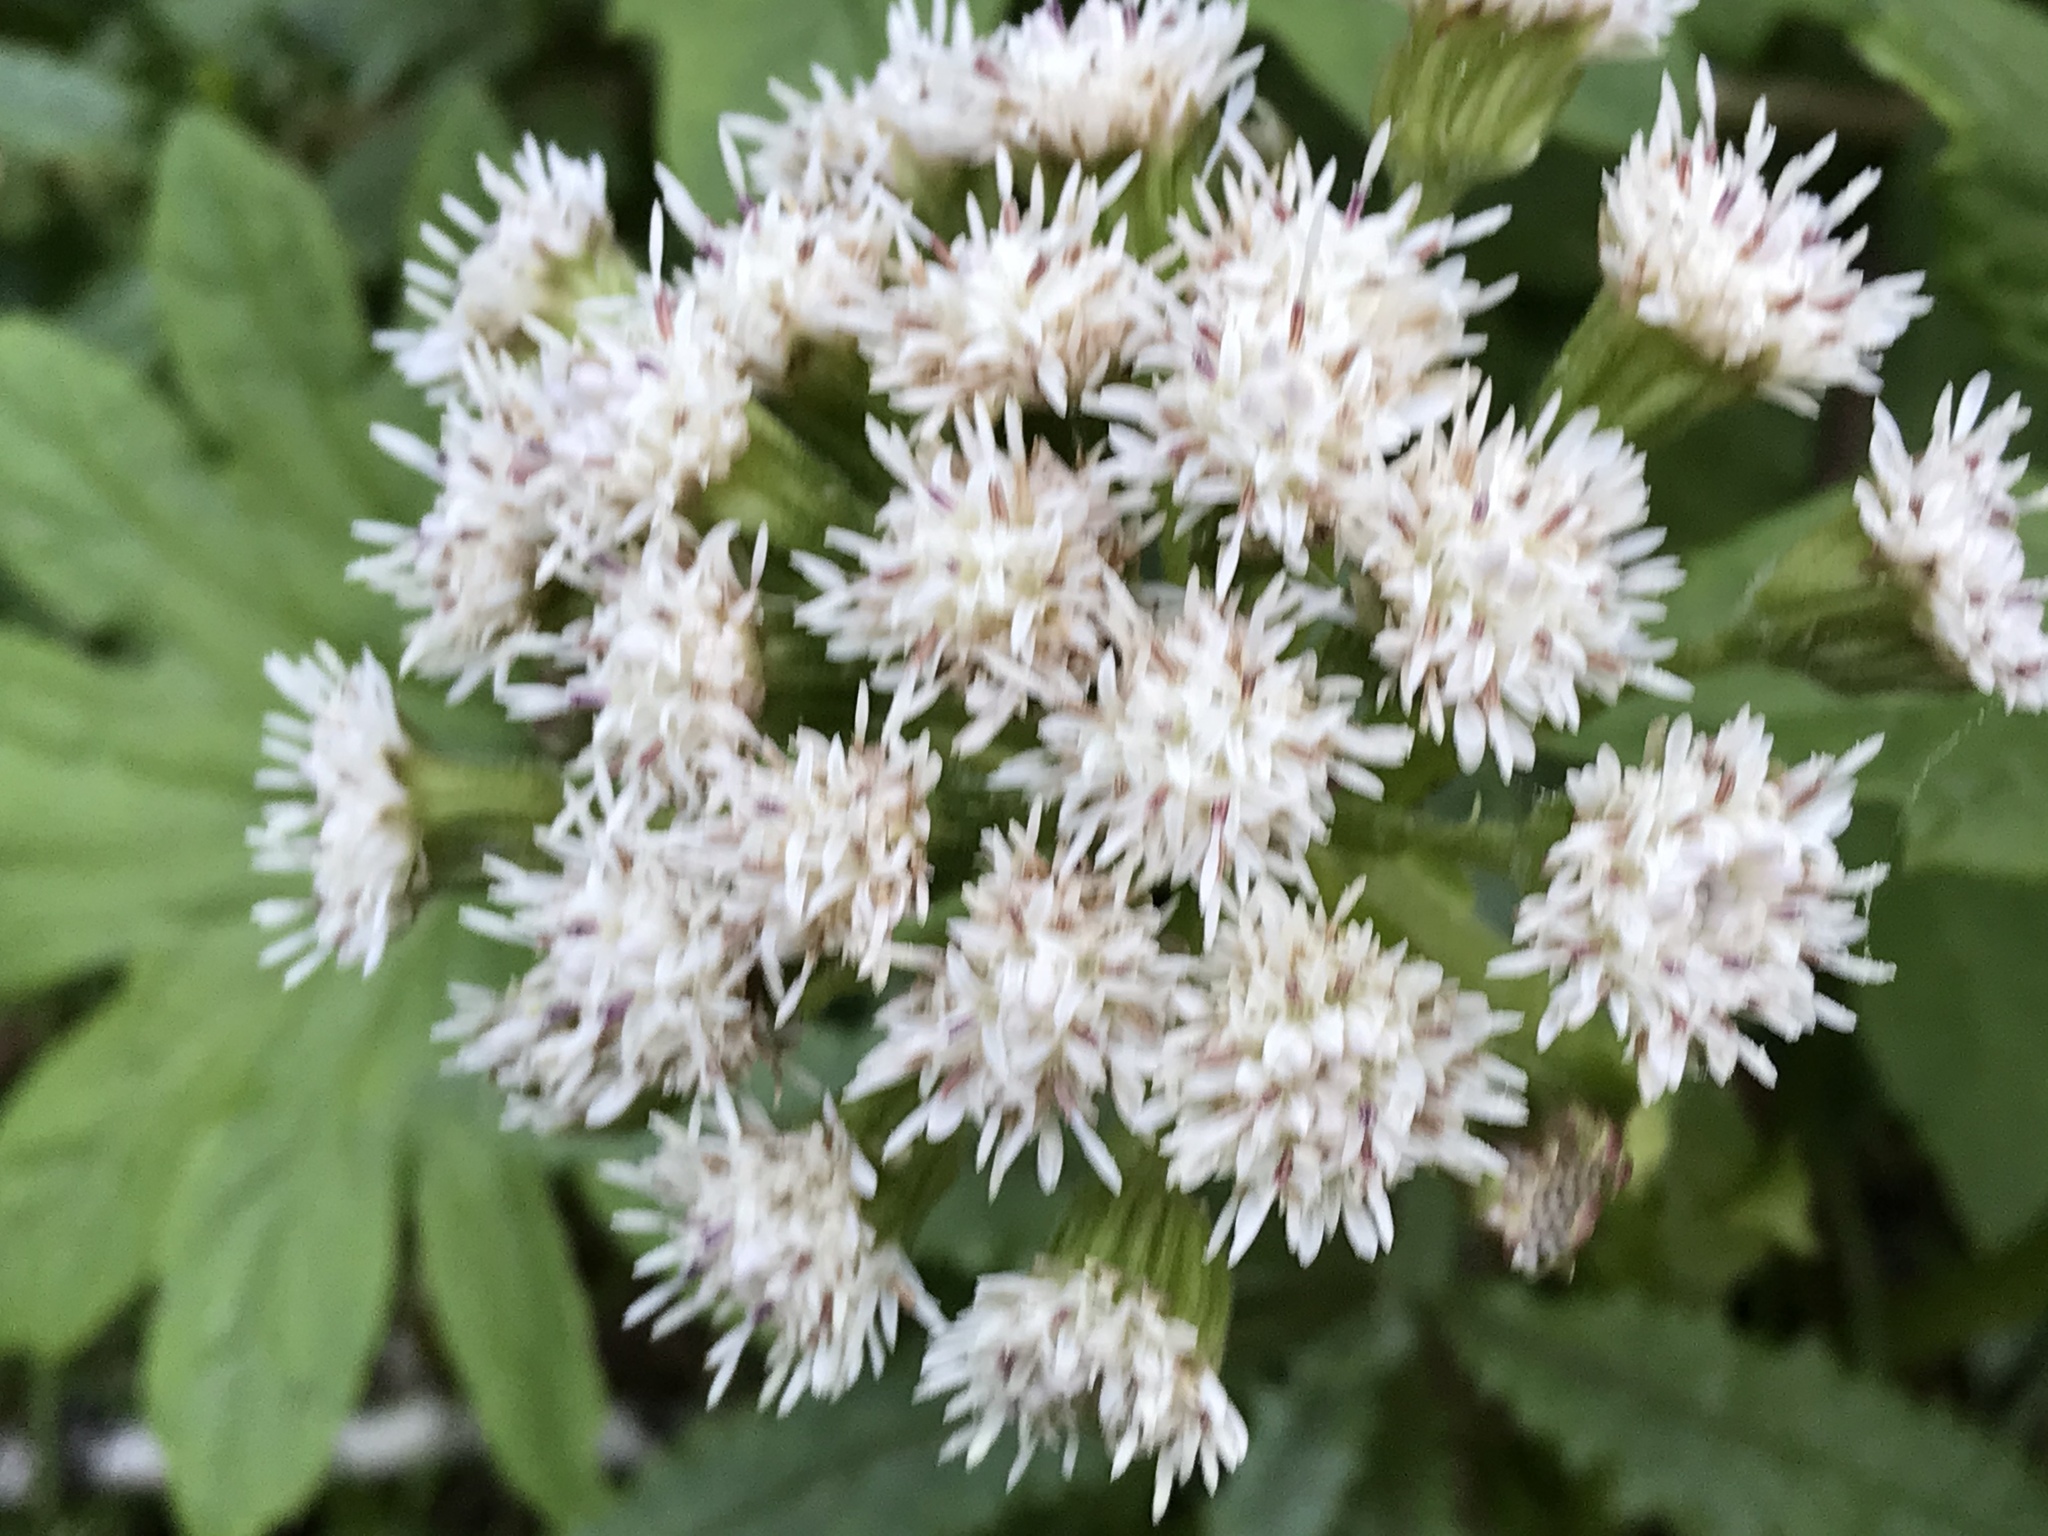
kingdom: Plantae
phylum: Tracheophyta
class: Magnoliopsida
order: Asterales
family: Asteraceae
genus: Petasites
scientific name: Petasites frigidus
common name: Arctic butterbur
